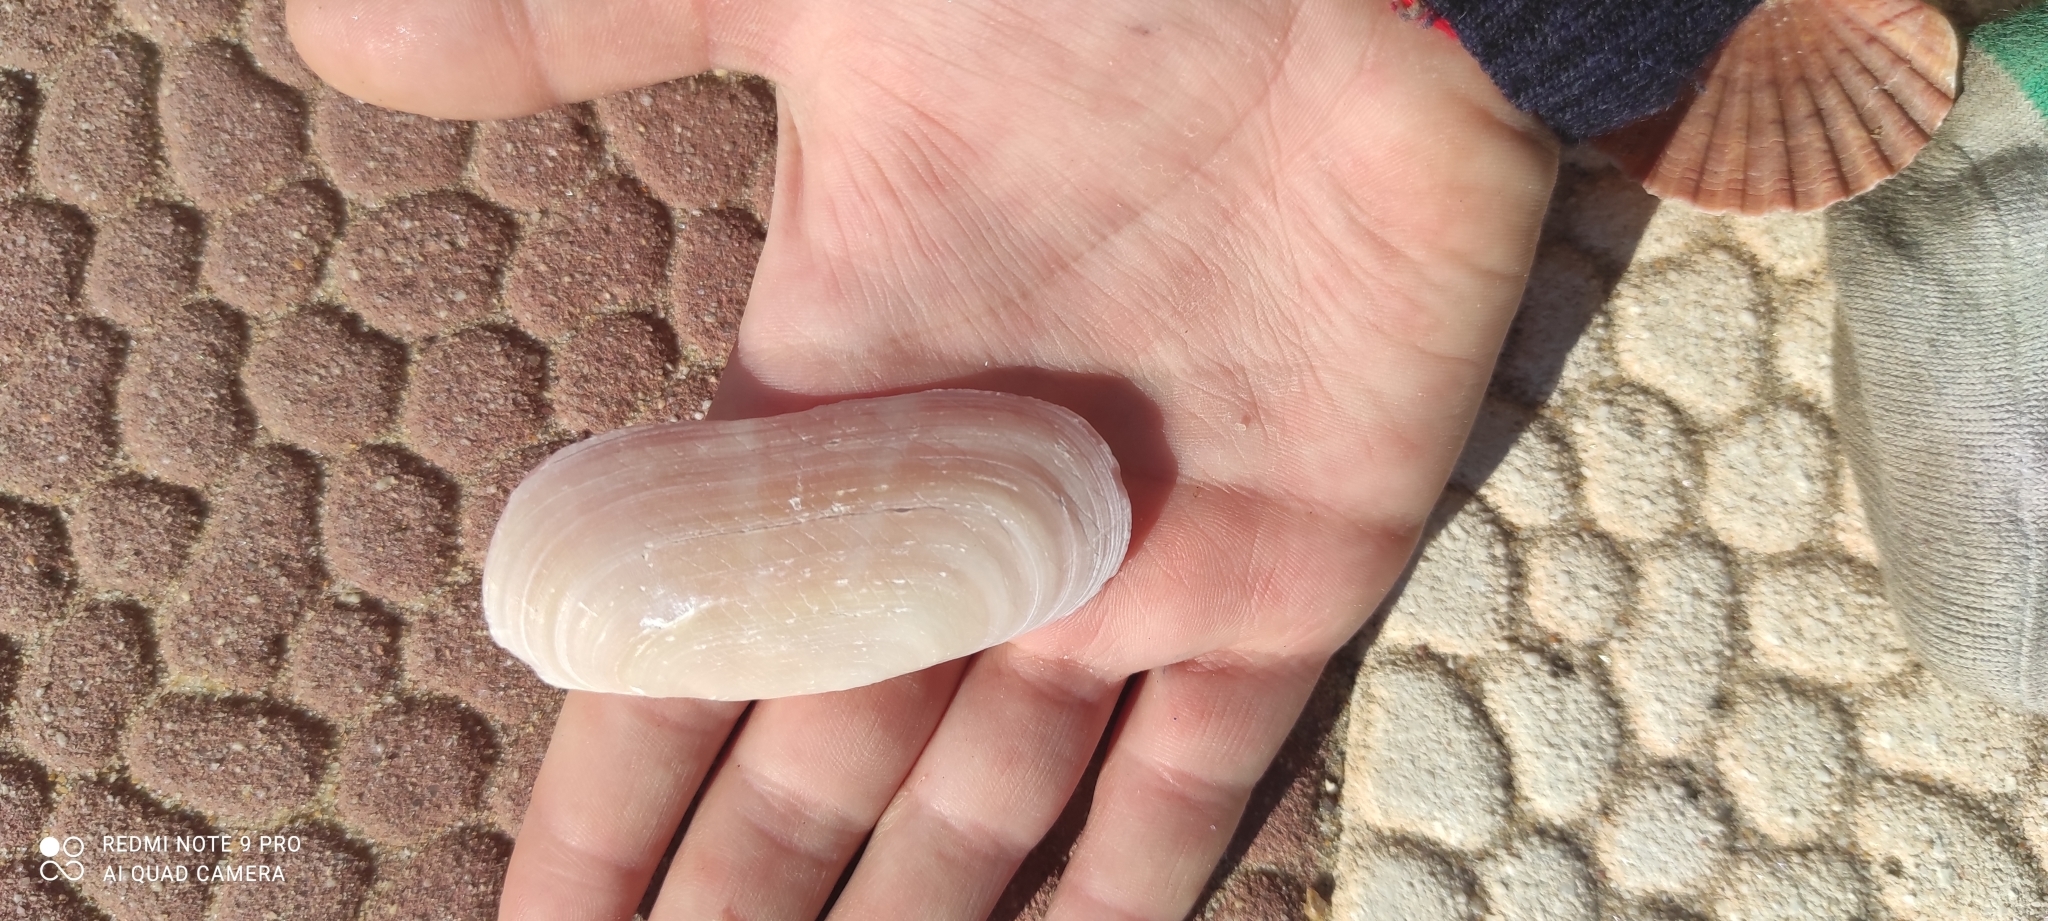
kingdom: Animalia
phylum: Mollusca
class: Bivalvia
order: Cardiida
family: Solecurtidae
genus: Solecurtus
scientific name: Solecurtus strigilatus
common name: Rosy razor clam
